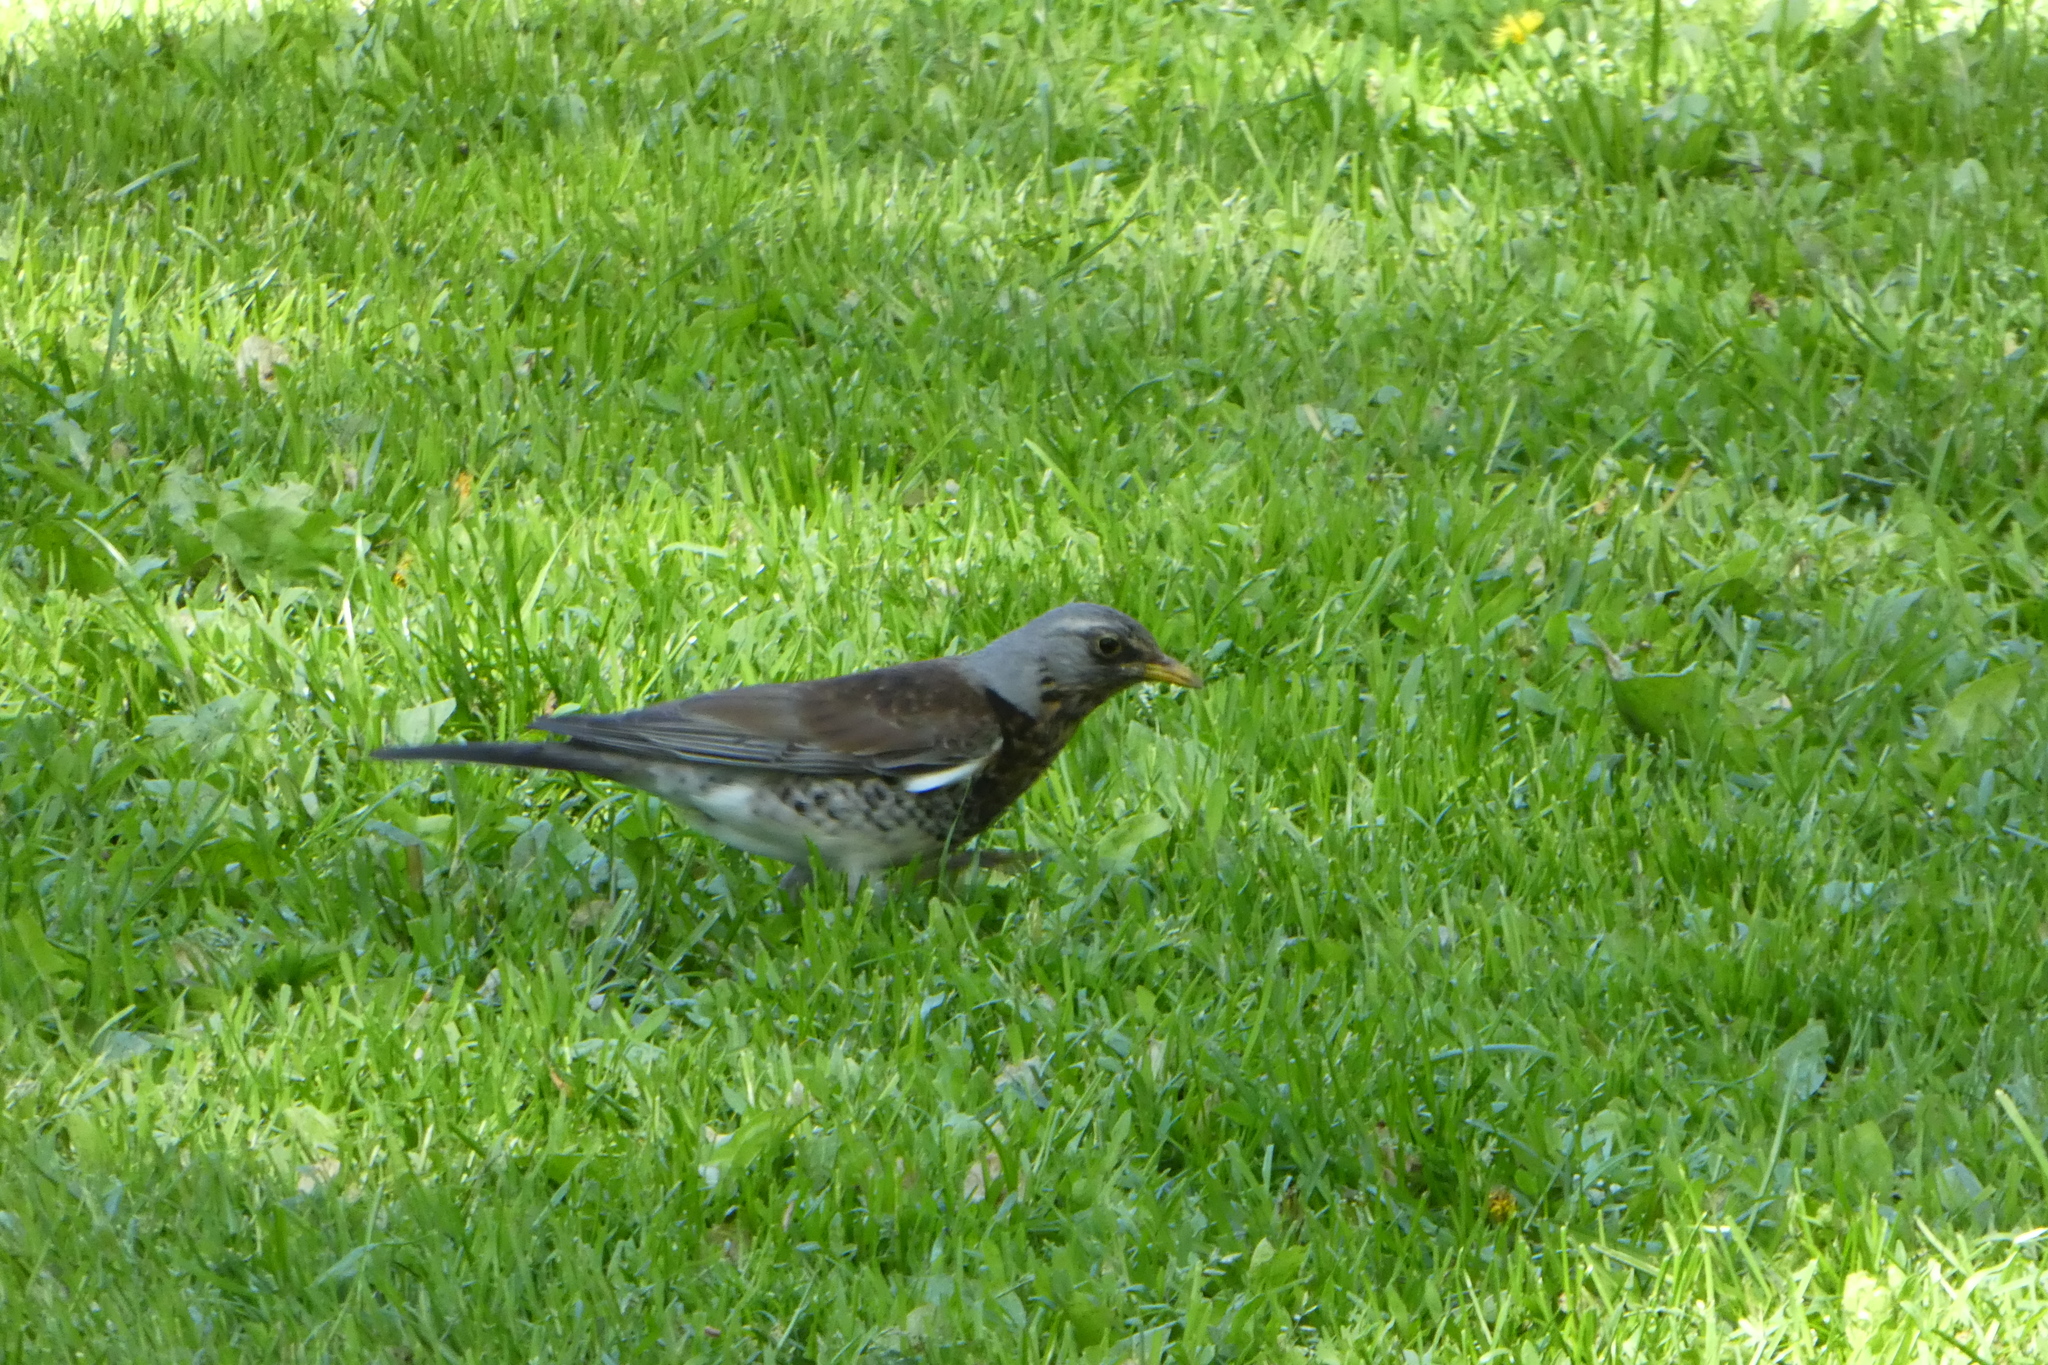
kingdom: Animalia
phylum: Chordata
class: Aves
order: Passeriformes
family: Turdidae
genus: Turdus
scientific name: Turdus pilaris
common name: Fieldfare
